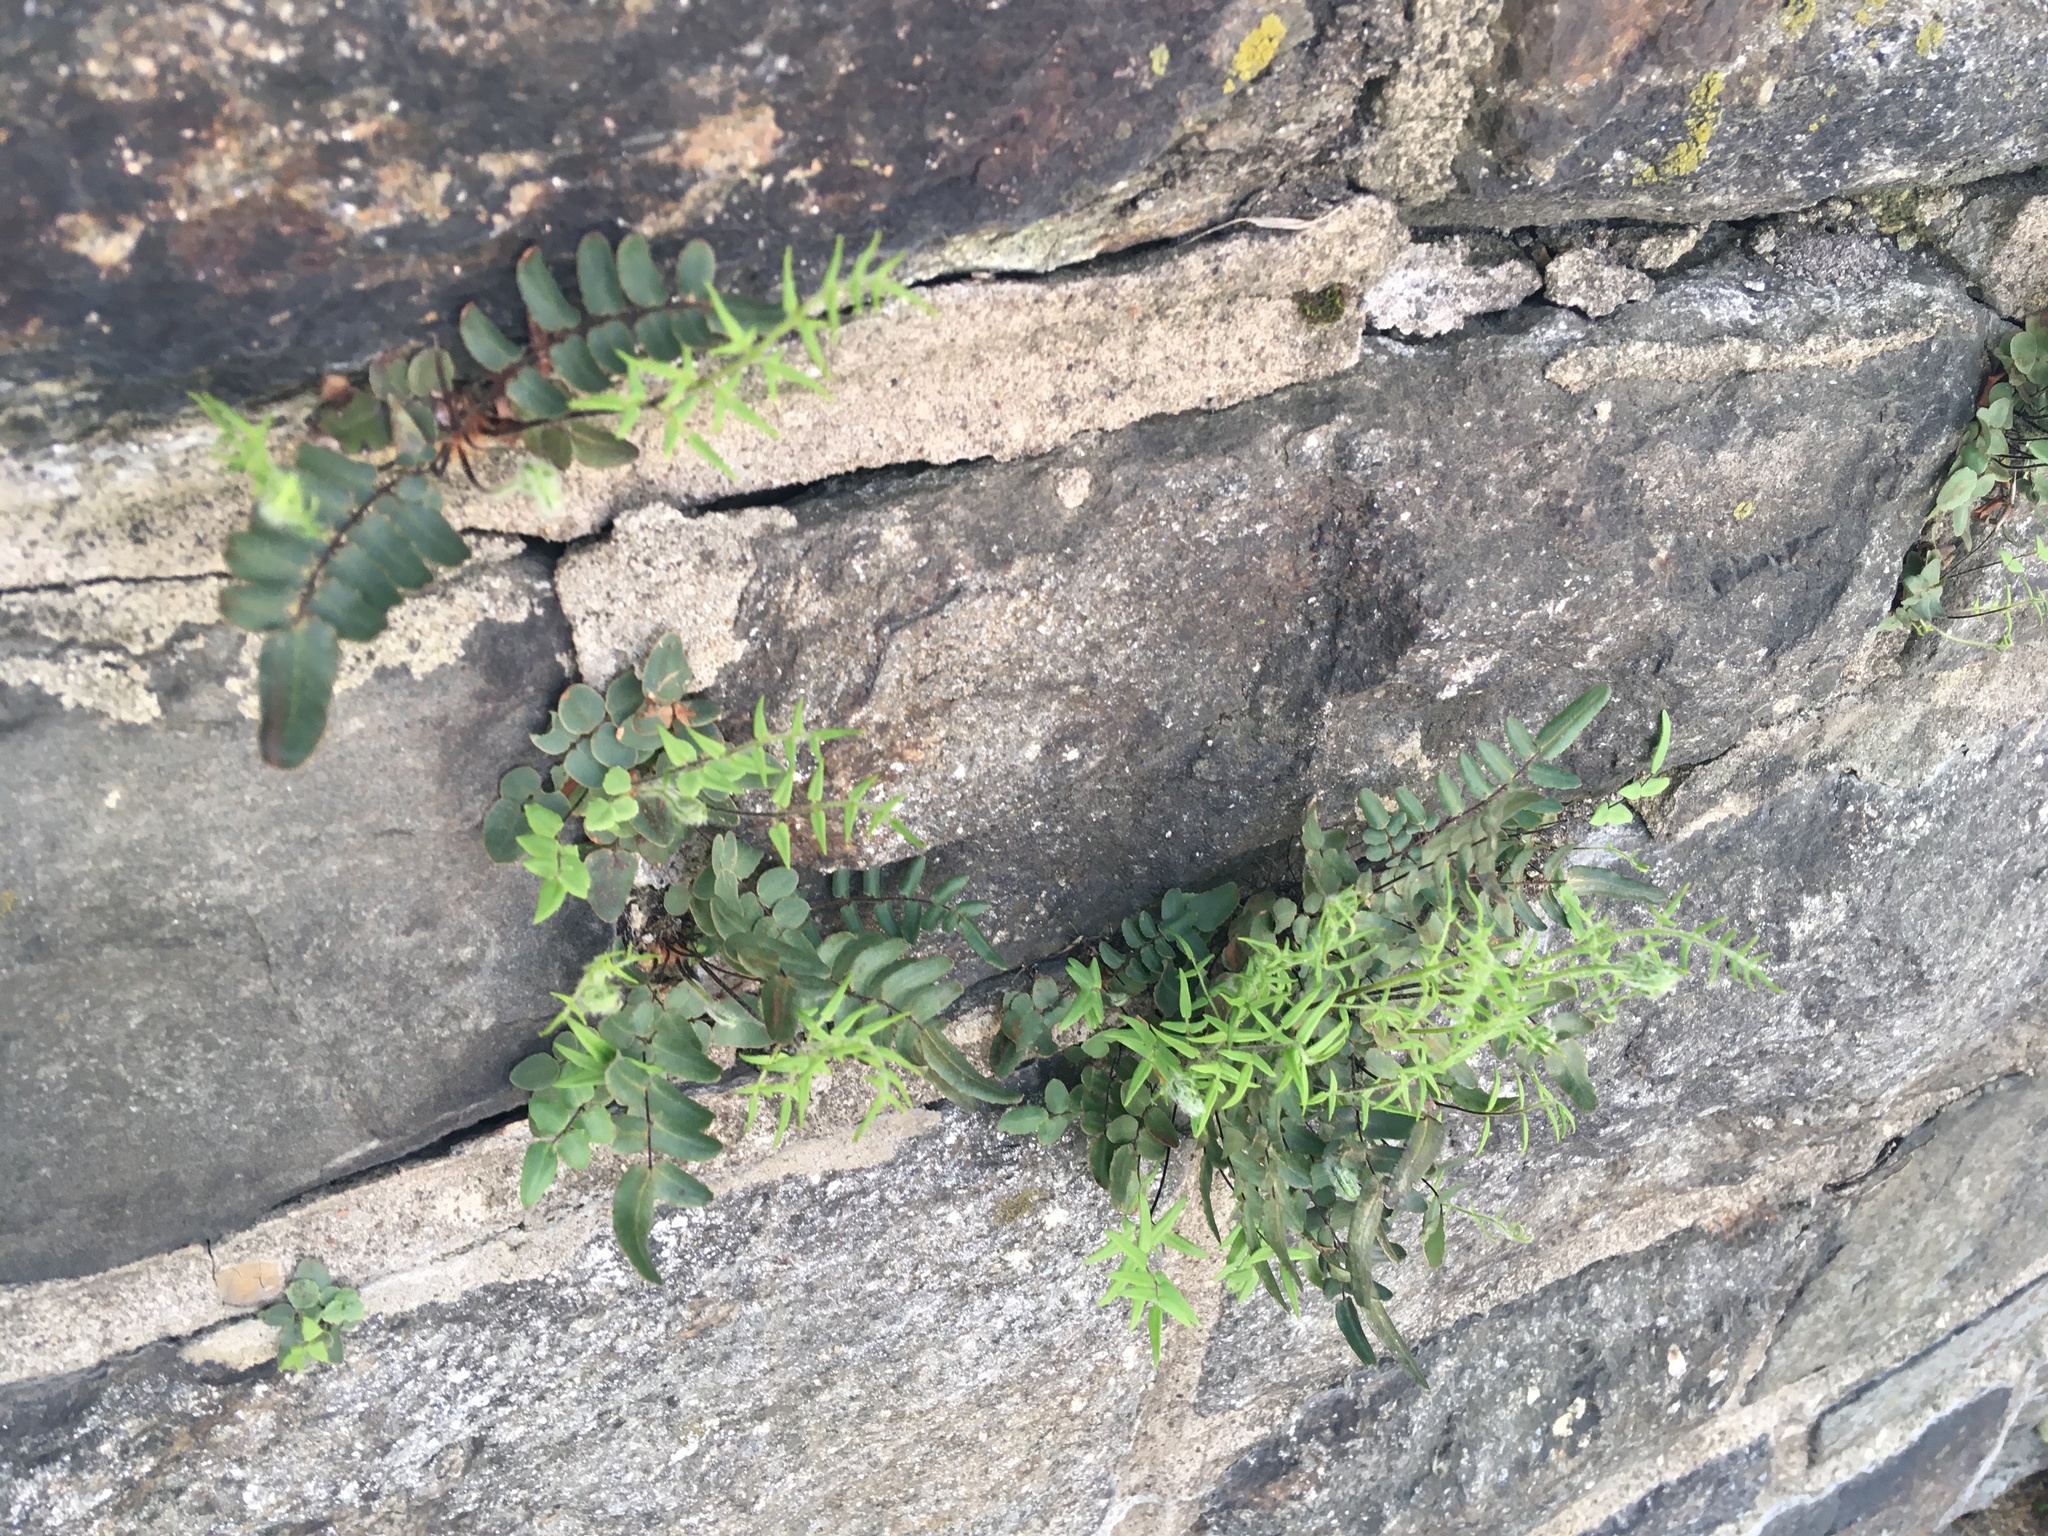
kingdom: Plantae
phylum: Tracheophyta
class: Polypodiopsida
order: Polypodiales
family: Pteridaceae
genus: Pellaea
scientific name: Pellaea atropurpurea
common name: Hairy cliffbrake
